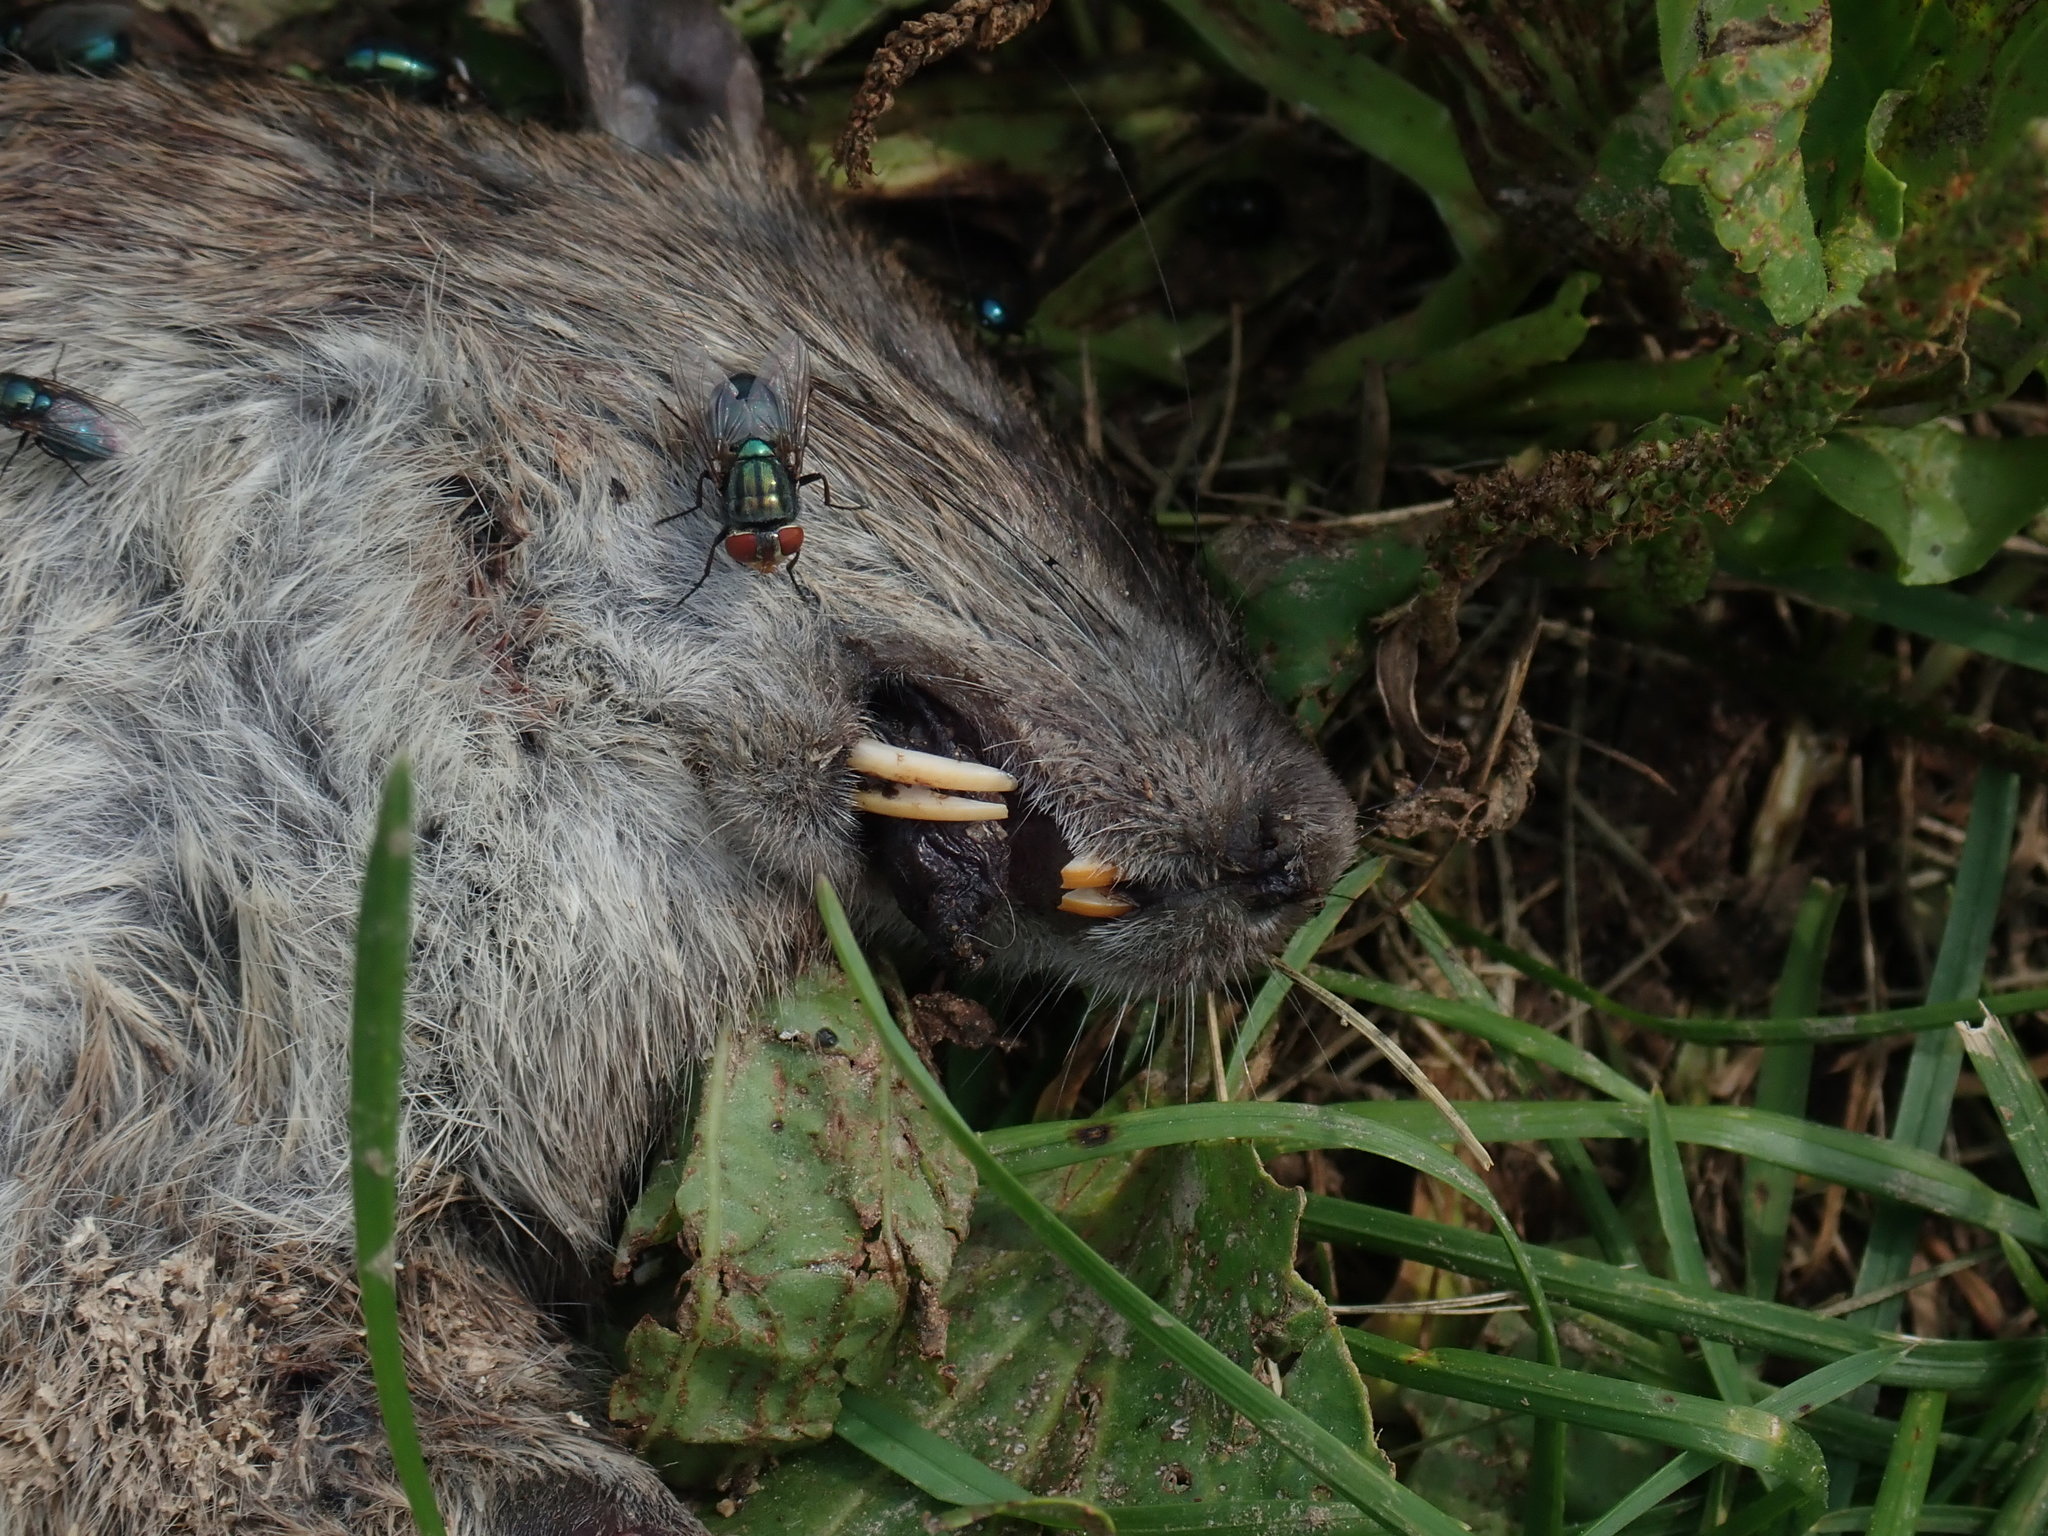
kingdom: Animalia
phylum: Chordata
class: Mammalia
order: Rodentia
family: Muridae
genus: Rattus
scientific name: Rattus norvegicus
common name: Brown rat
